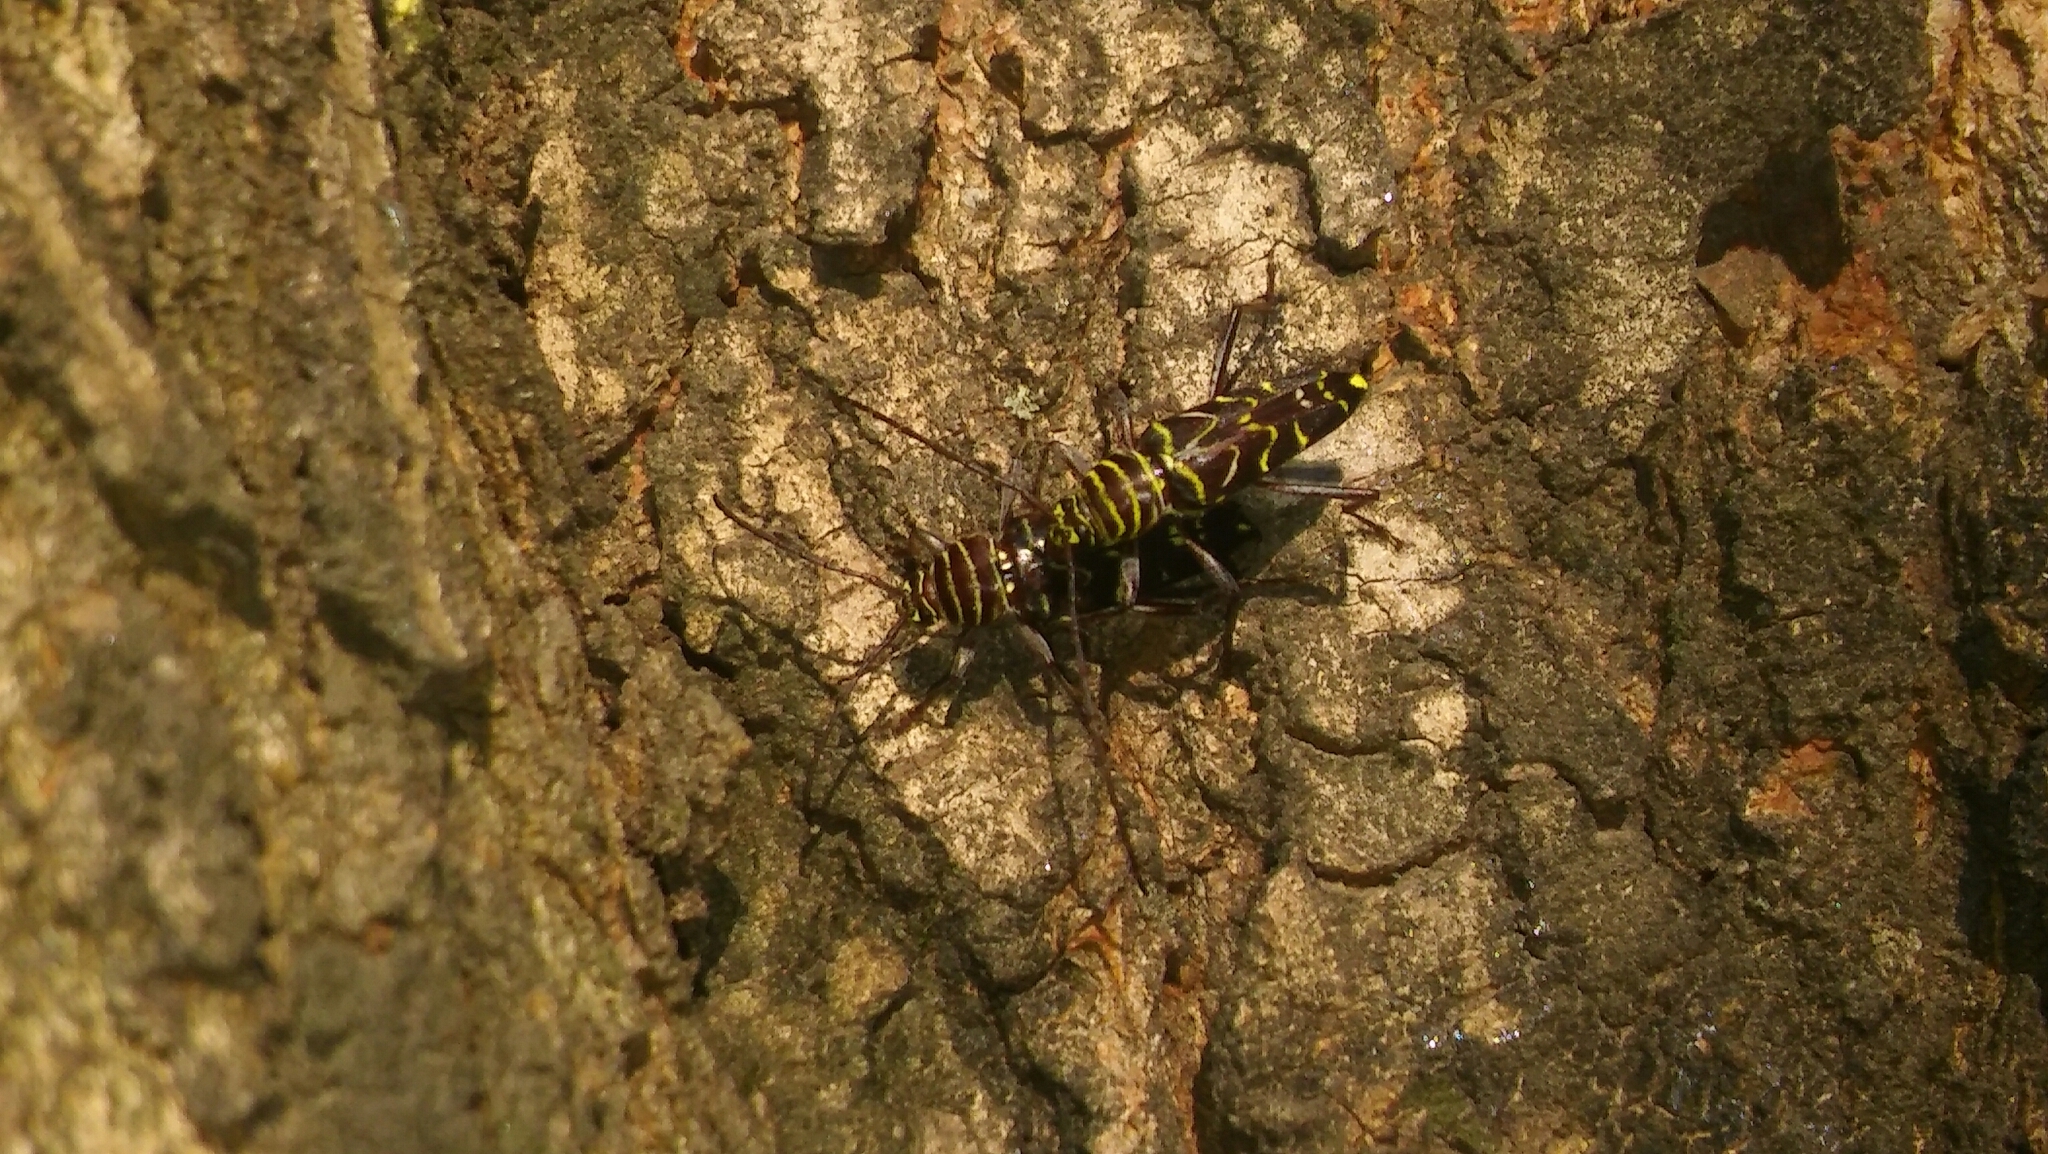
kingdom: Animalia
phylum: Arthropoda
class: Insecta
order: Coleoptera
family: Cerambycidae
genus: Megacyllene
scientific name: Megacyllene acuta
